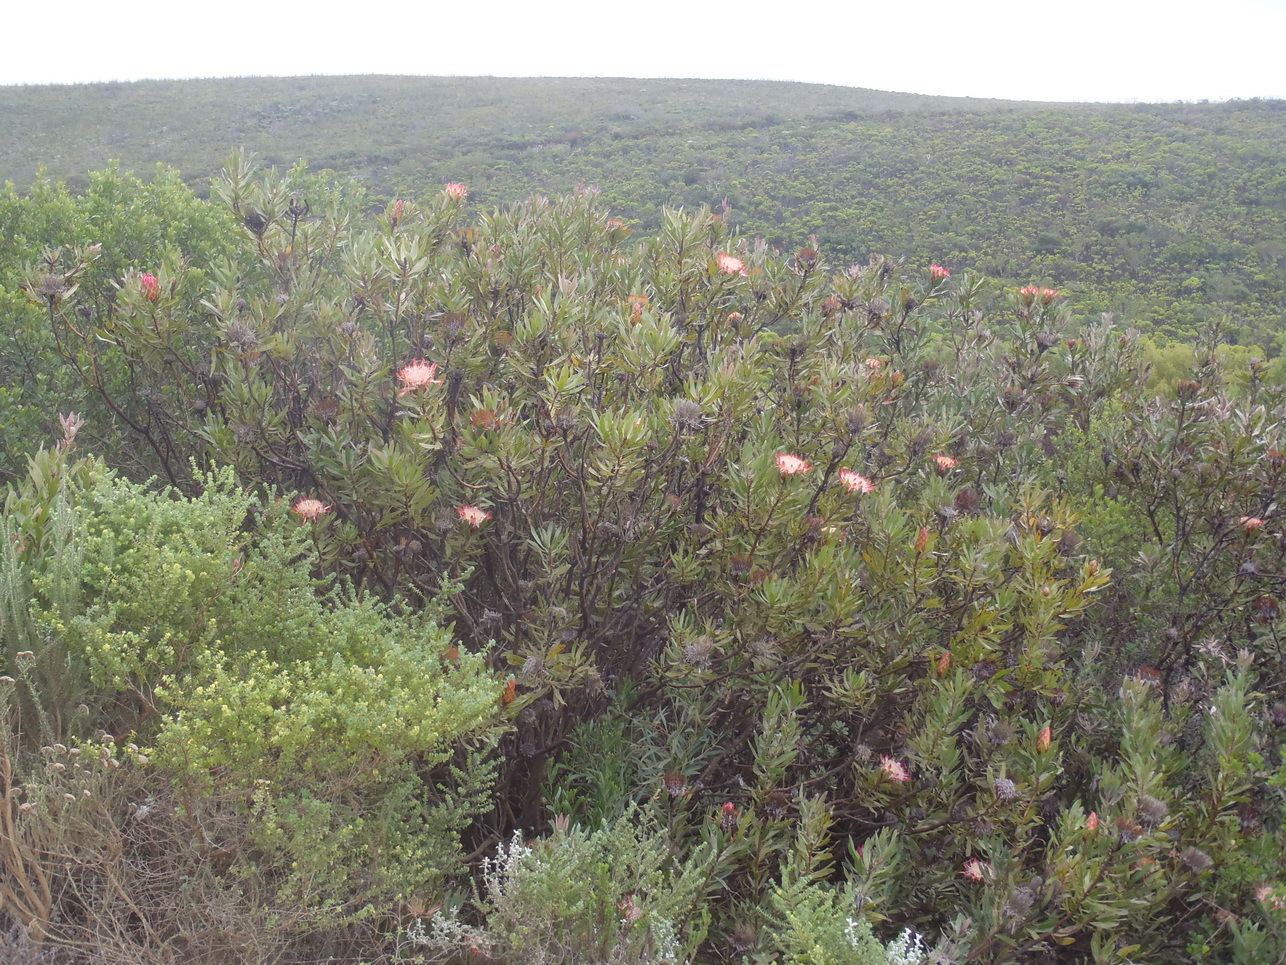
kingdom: Plantae
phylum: Tracheophyta
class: Magnoliopsida
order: Proteales
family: Proteaceae
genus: Protea
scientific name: Protea susannae
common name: Foetid-leaf sugarbush
